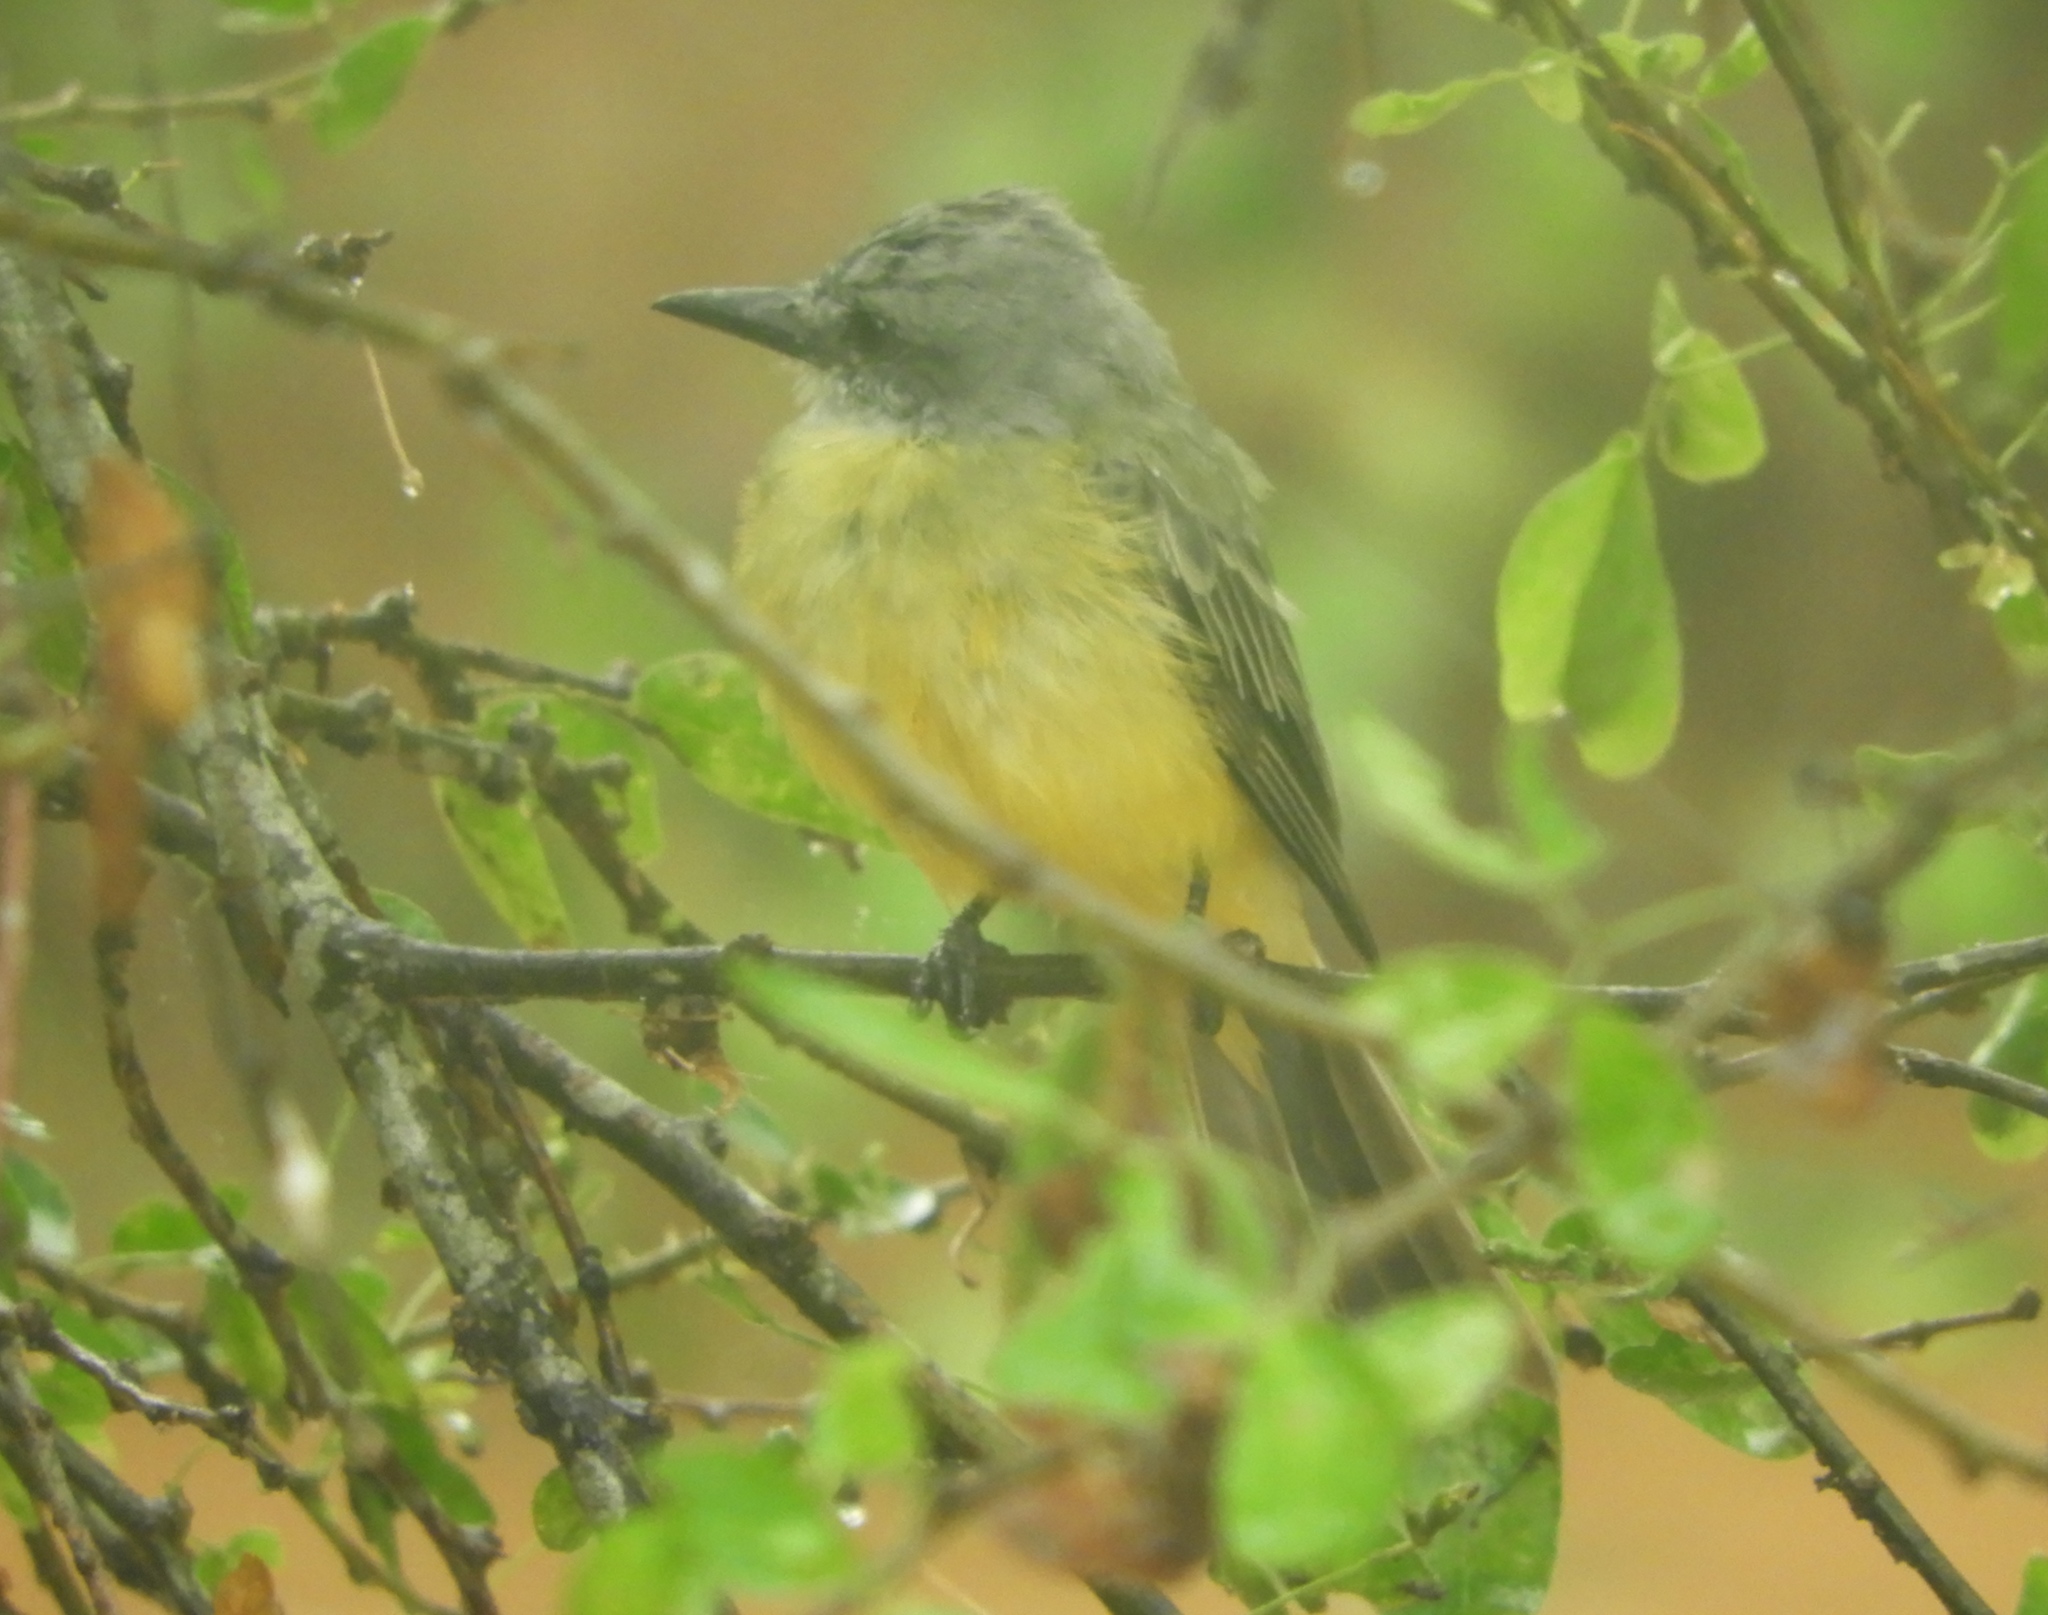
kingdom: Animalia
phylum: Chordata
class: Aves
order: Passeriformes
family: Tyrannidae
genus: Tyrannus
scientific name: Tyrannus melancholicus
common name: Tropical kingbird
